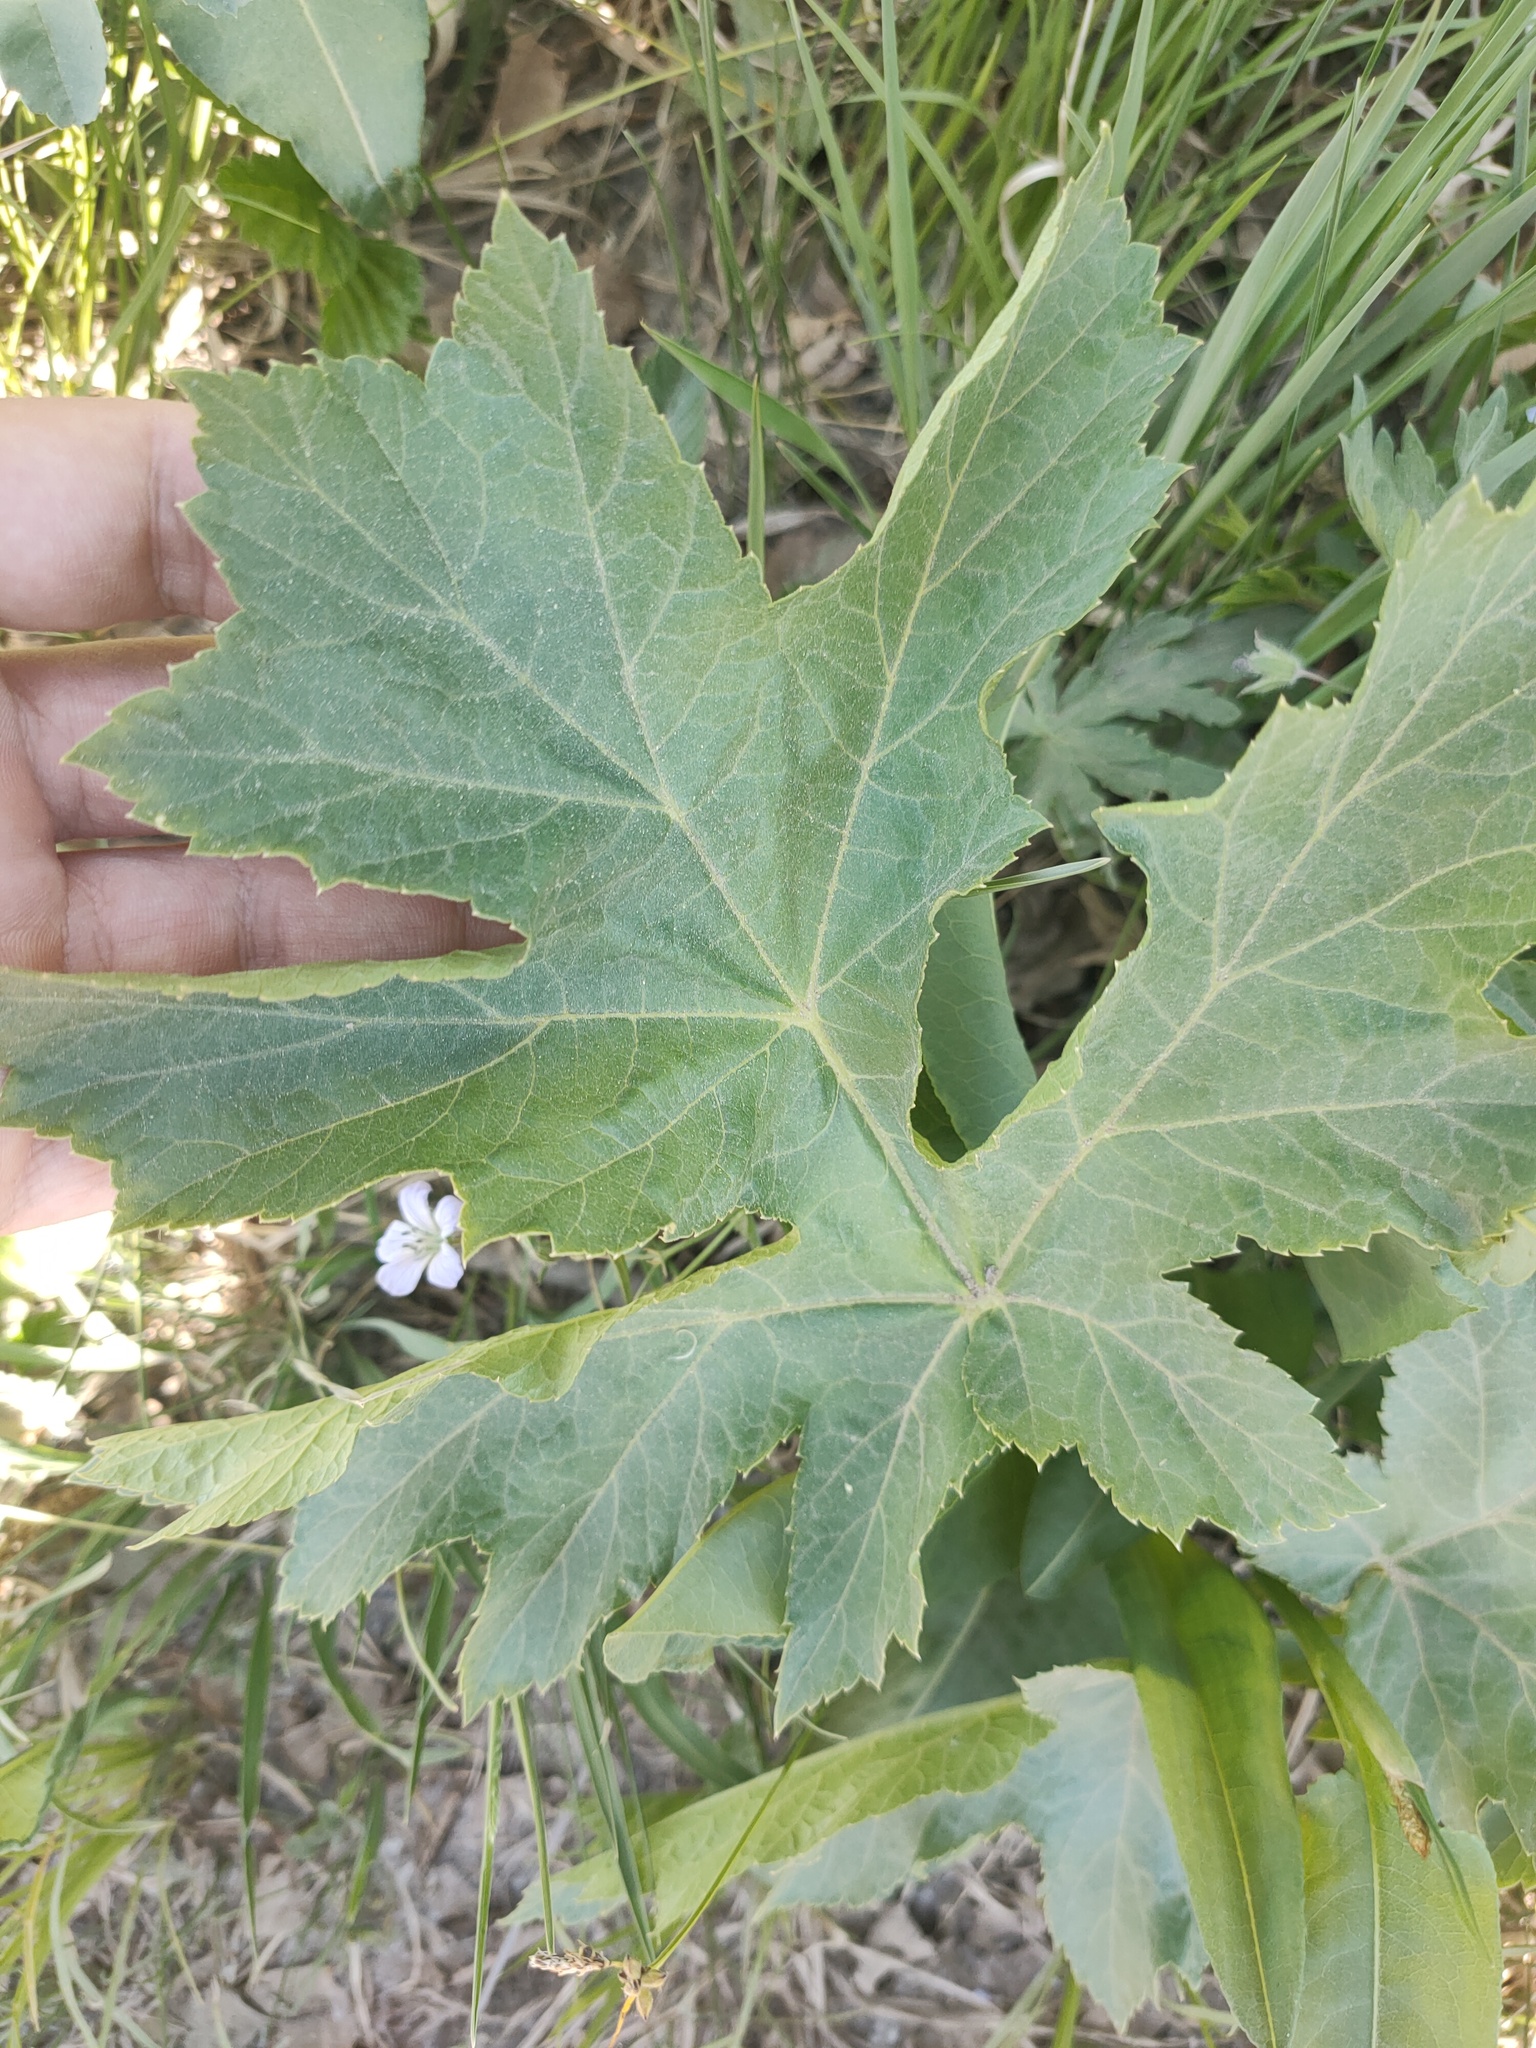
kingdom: Plantae
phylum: Tracheophyta
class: Magnoliopsida
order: Apiales
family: Apiaceae
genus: Heracleum
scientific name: Heracleum sphondylium
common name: Hogweed
